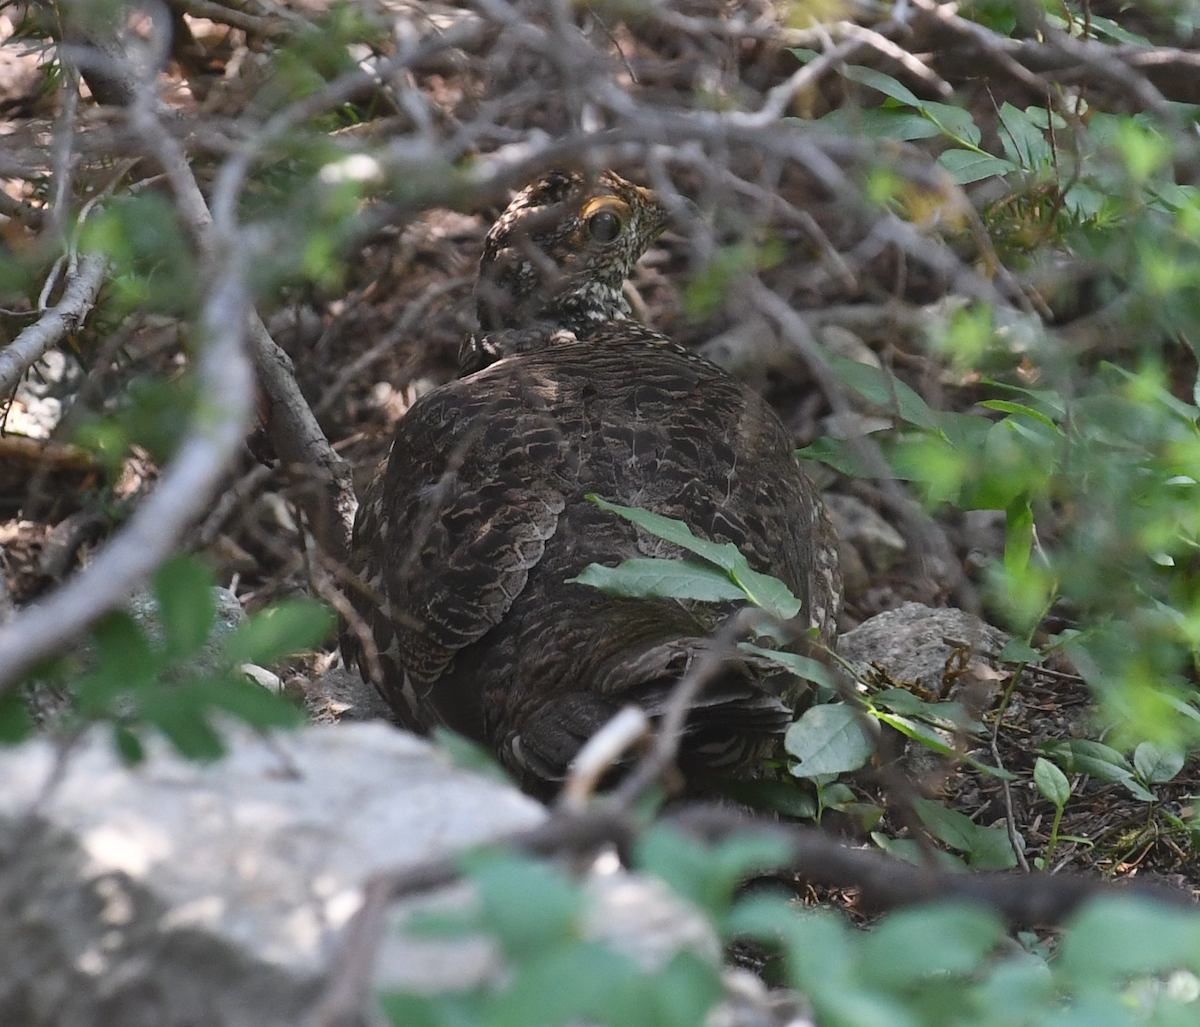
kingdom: Animalia
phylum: Chordata
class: Aves
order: Galliformes
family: Phasianidae
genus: Dendragapus
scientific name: Dendragapus fuliginosus
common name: Sooty grouse
